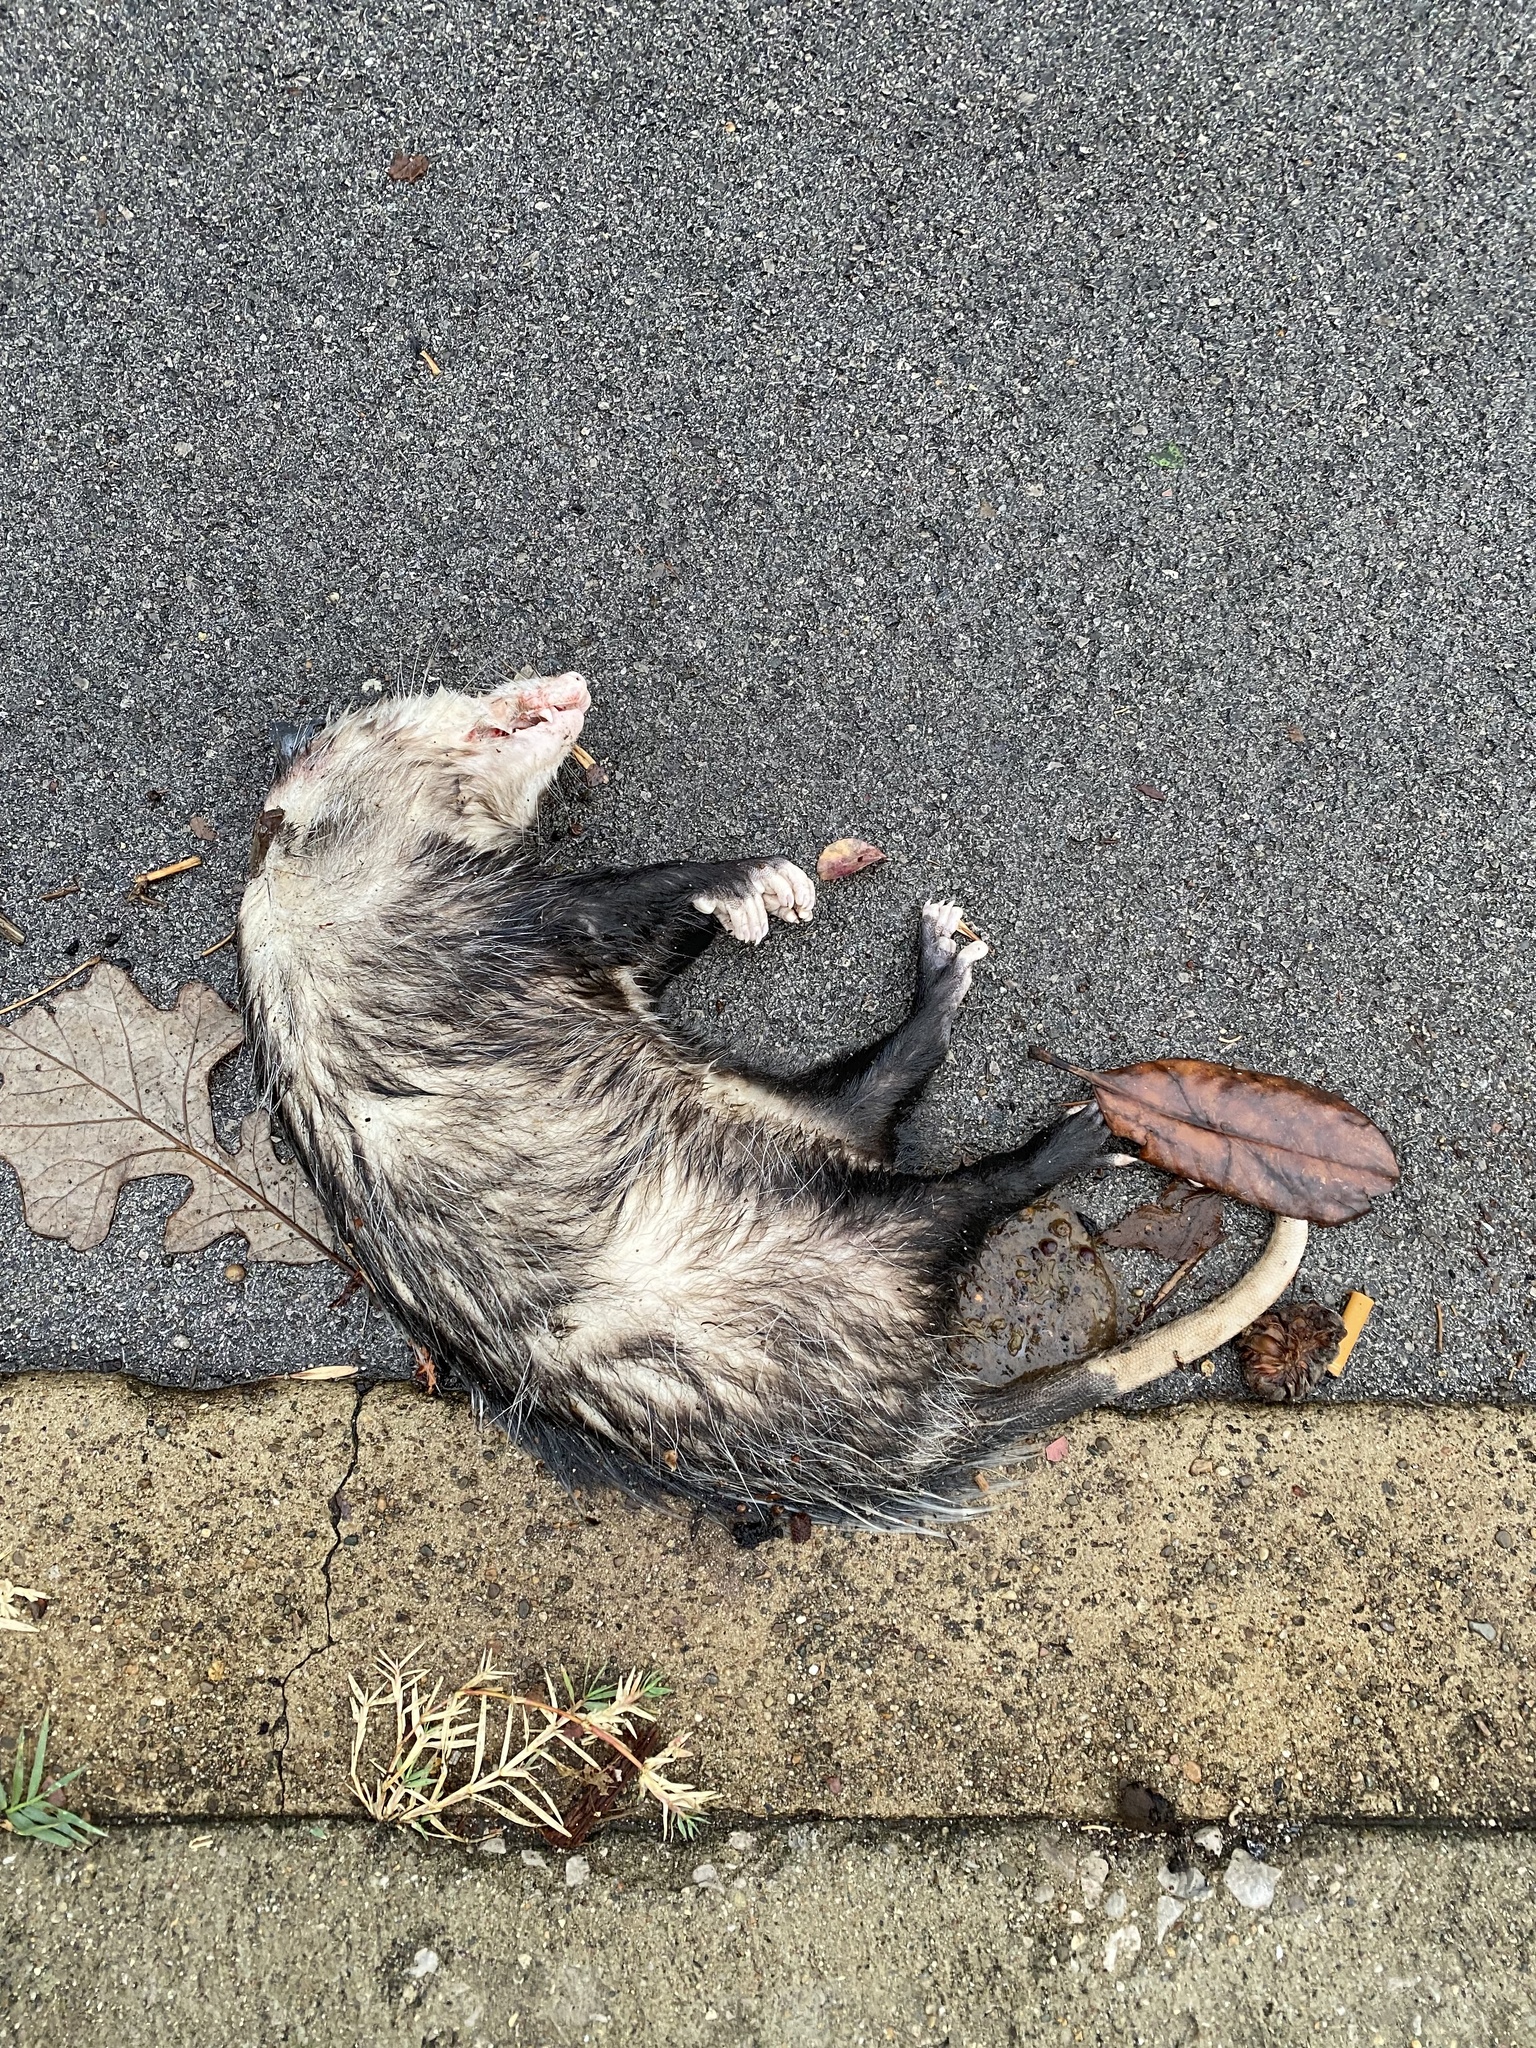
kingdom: Animalia
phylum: Chordata
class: Mammalia
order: Didelphimorphia
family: Didelphidae
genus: Didelphis
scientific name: Didelphis virginiana
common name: Virginia opossum
